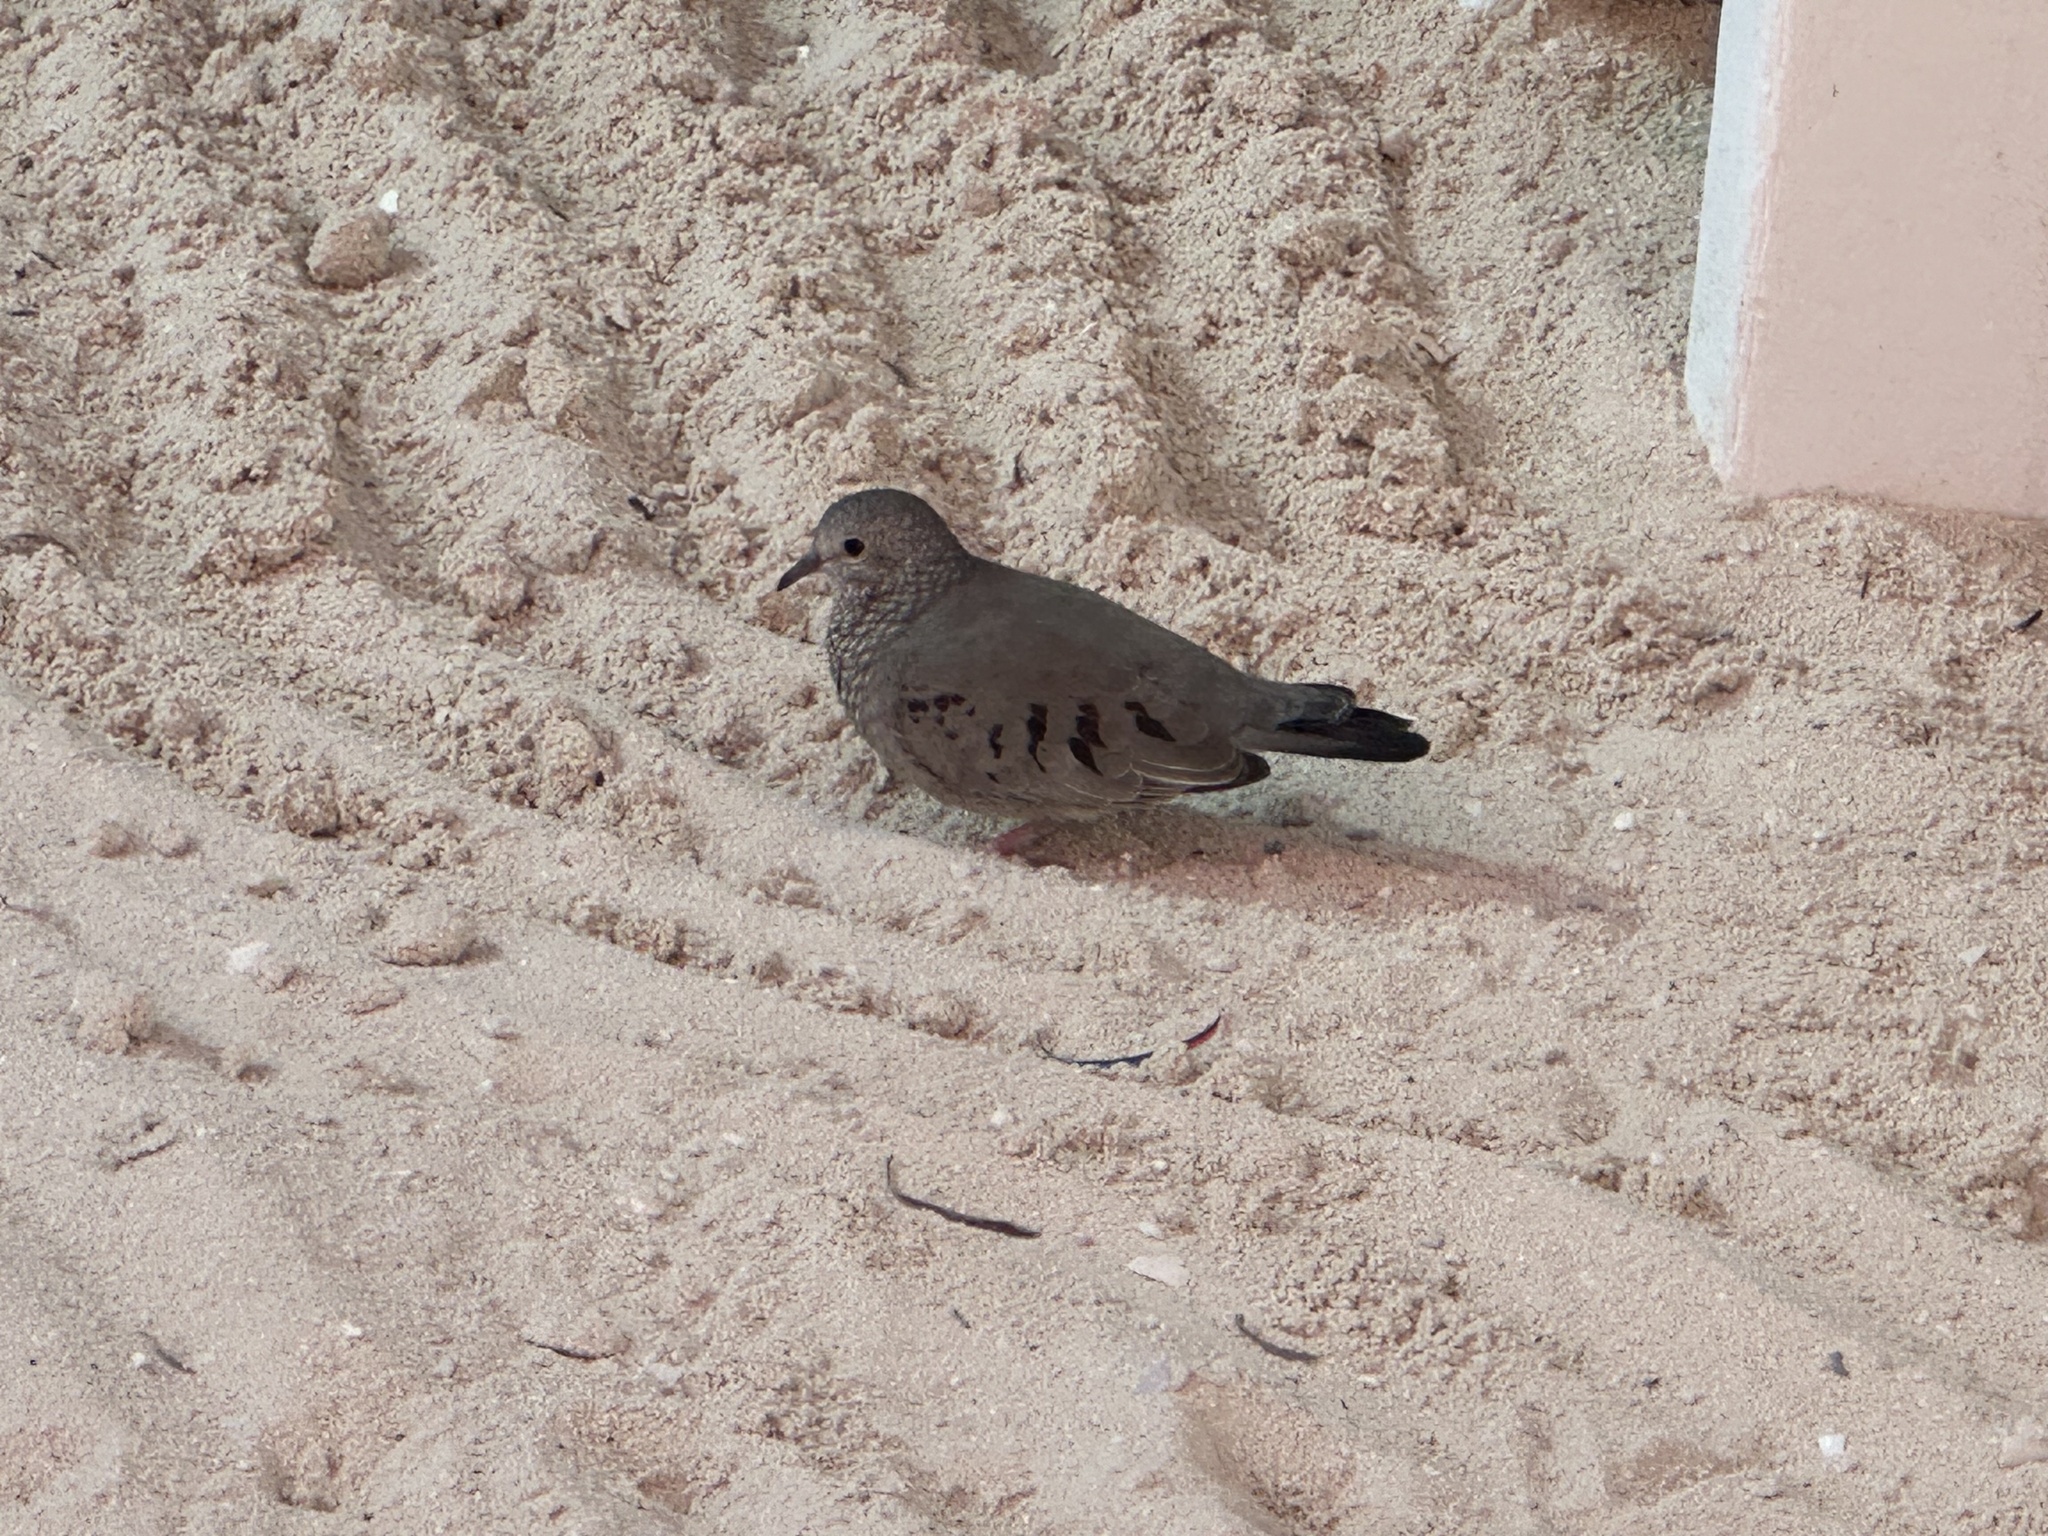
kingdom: Animalia
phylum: Chordata
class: Aves
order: Columbiformes
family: Columbidae
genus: Columbina
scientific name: Columbina passerina
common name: Common ground-dove
